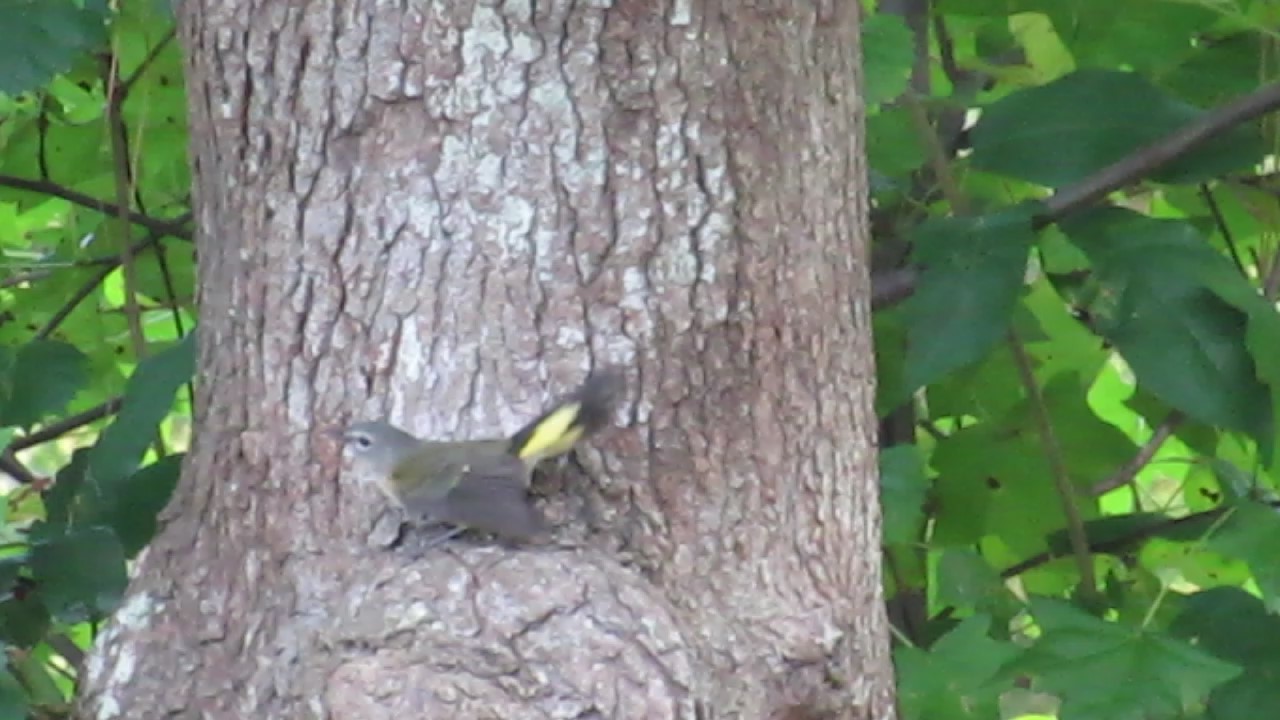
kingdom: Animalia
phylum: Chordata
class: Aves
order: Passeriformes
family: Parulidae
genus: Setophaga
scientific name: Setophaga ruticilla
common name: American redstart
